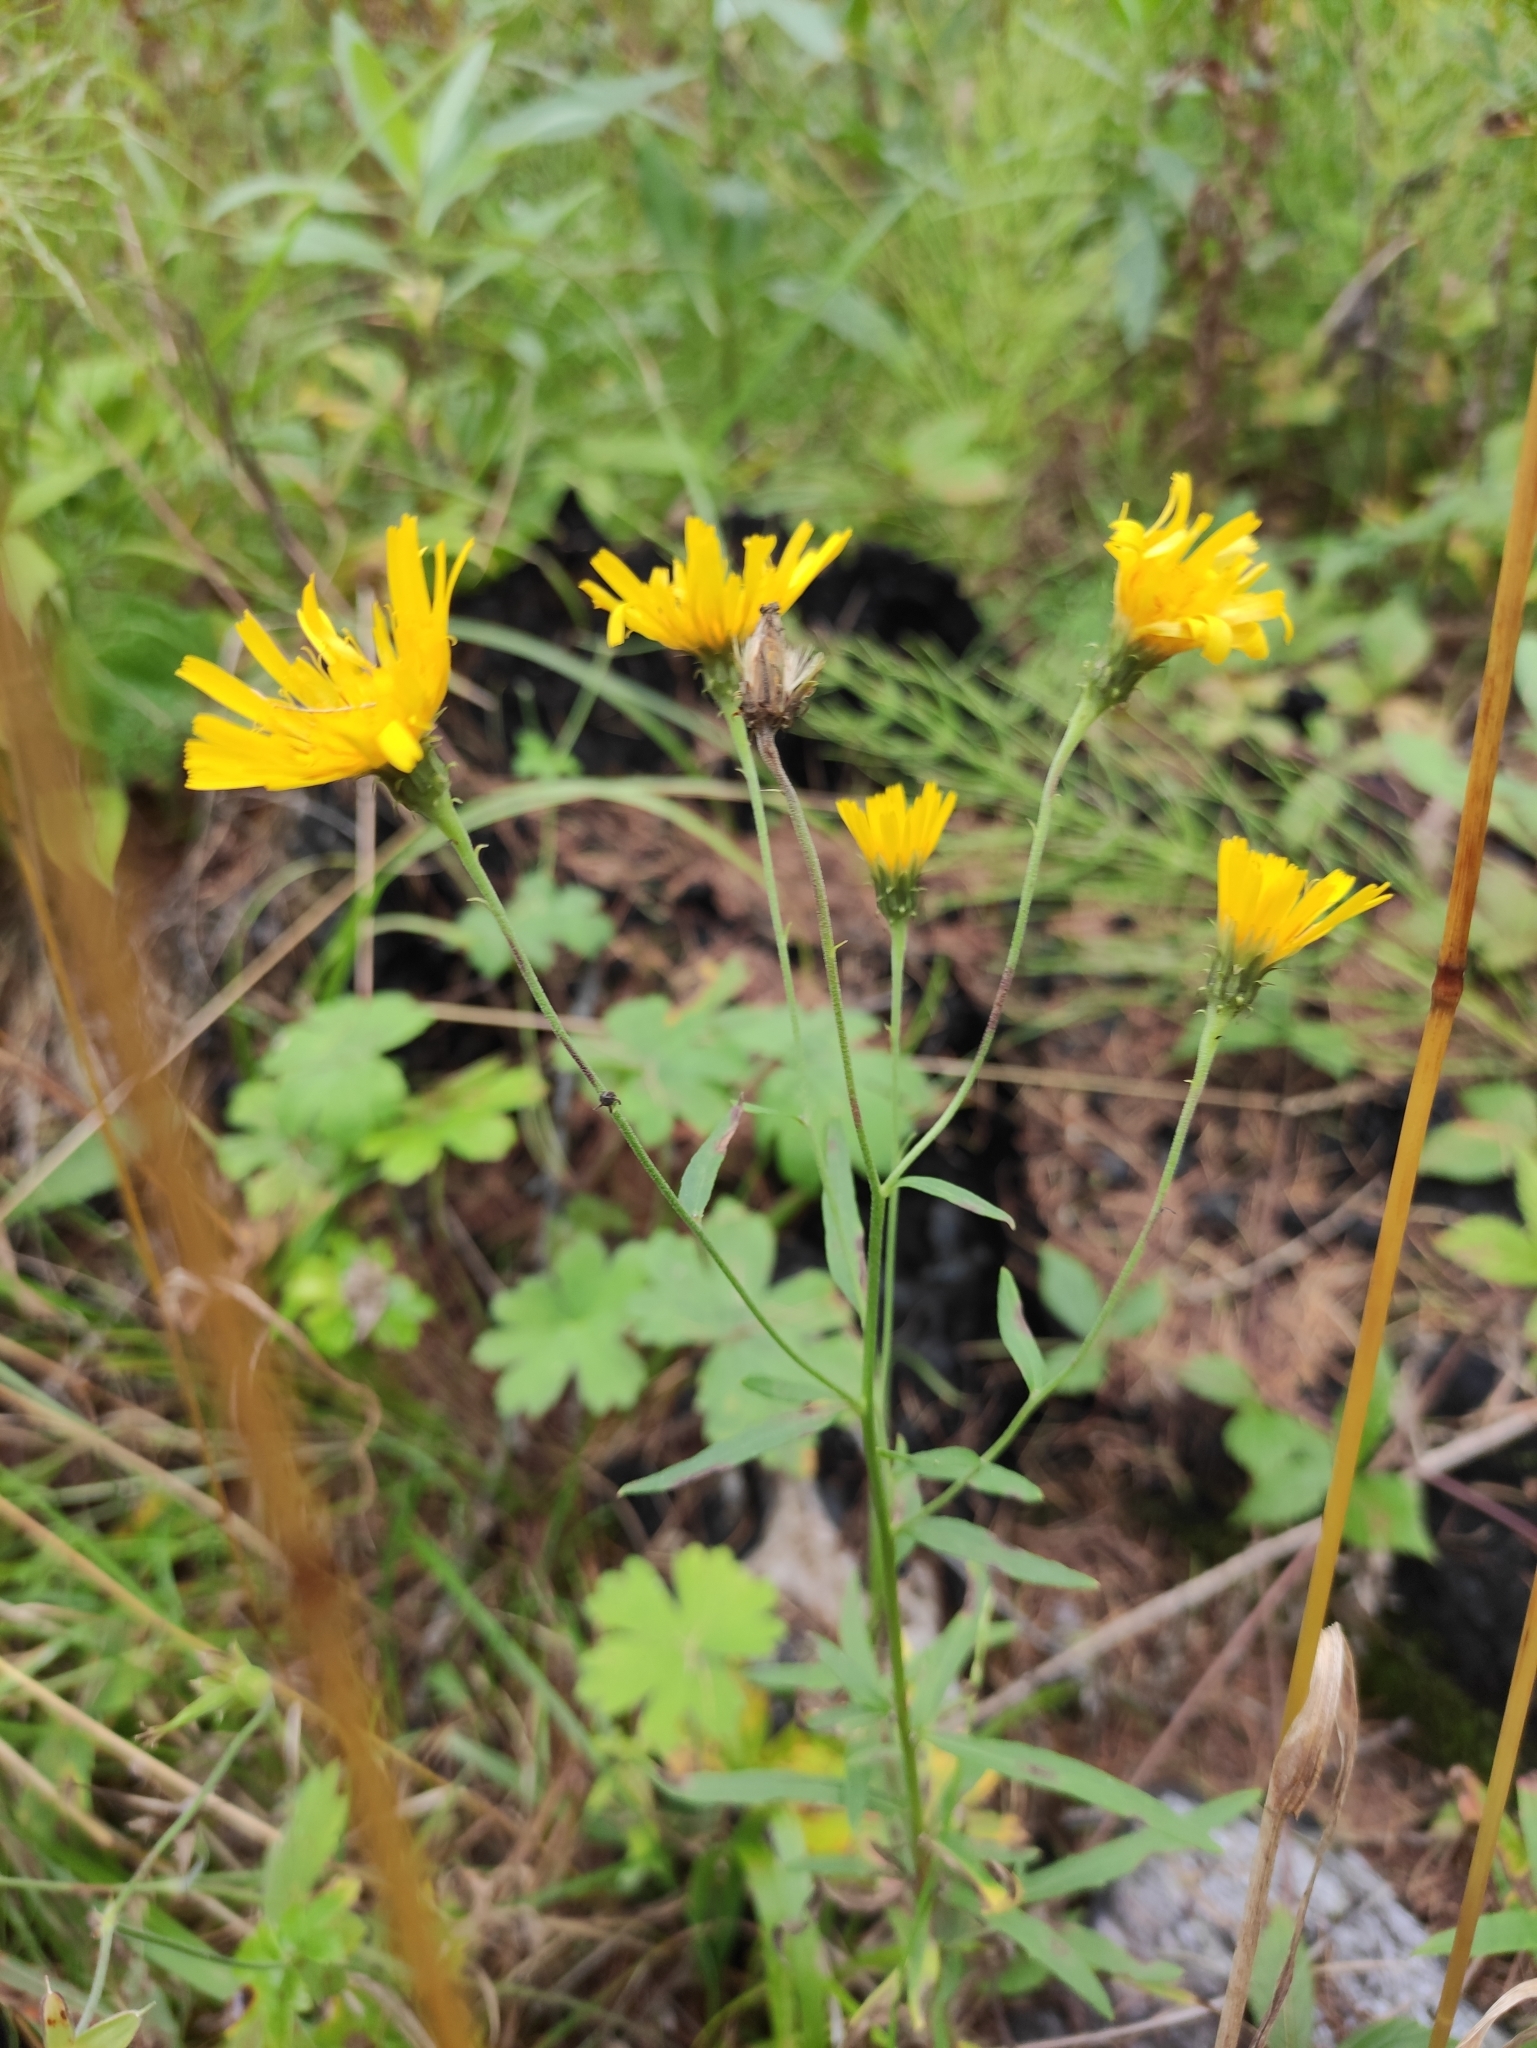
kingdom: Plantae
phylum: Tracheophyta
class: Magnoliopsida
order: Asterales
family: Asteraceae
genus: Hieracium
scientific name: Hieracium umbellatum
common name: Northern hawkweed
